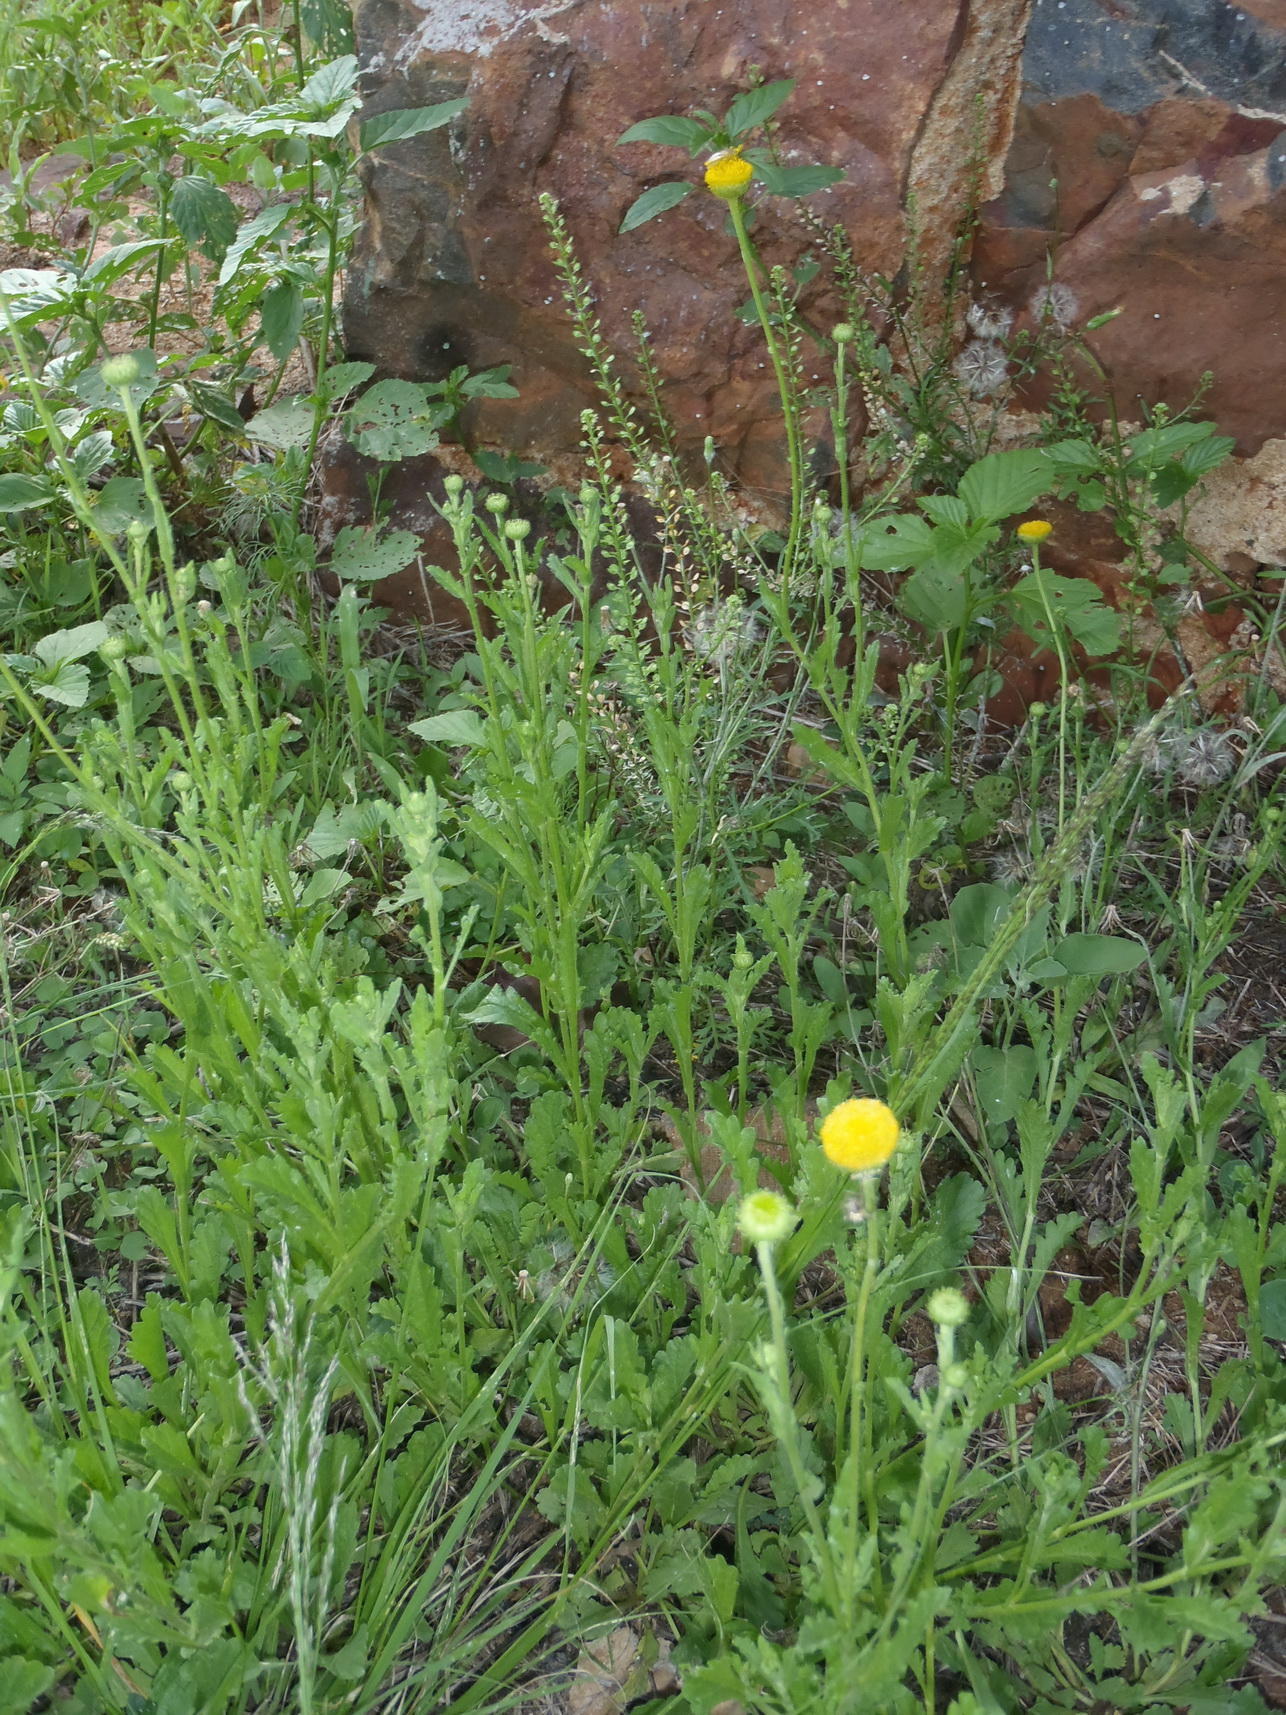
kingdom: Plantae
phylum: Tracheophyta
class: Magnoliopsida
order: Asterales
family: Asteraceae
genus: Nidorella
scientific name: Nidorella podocephala
